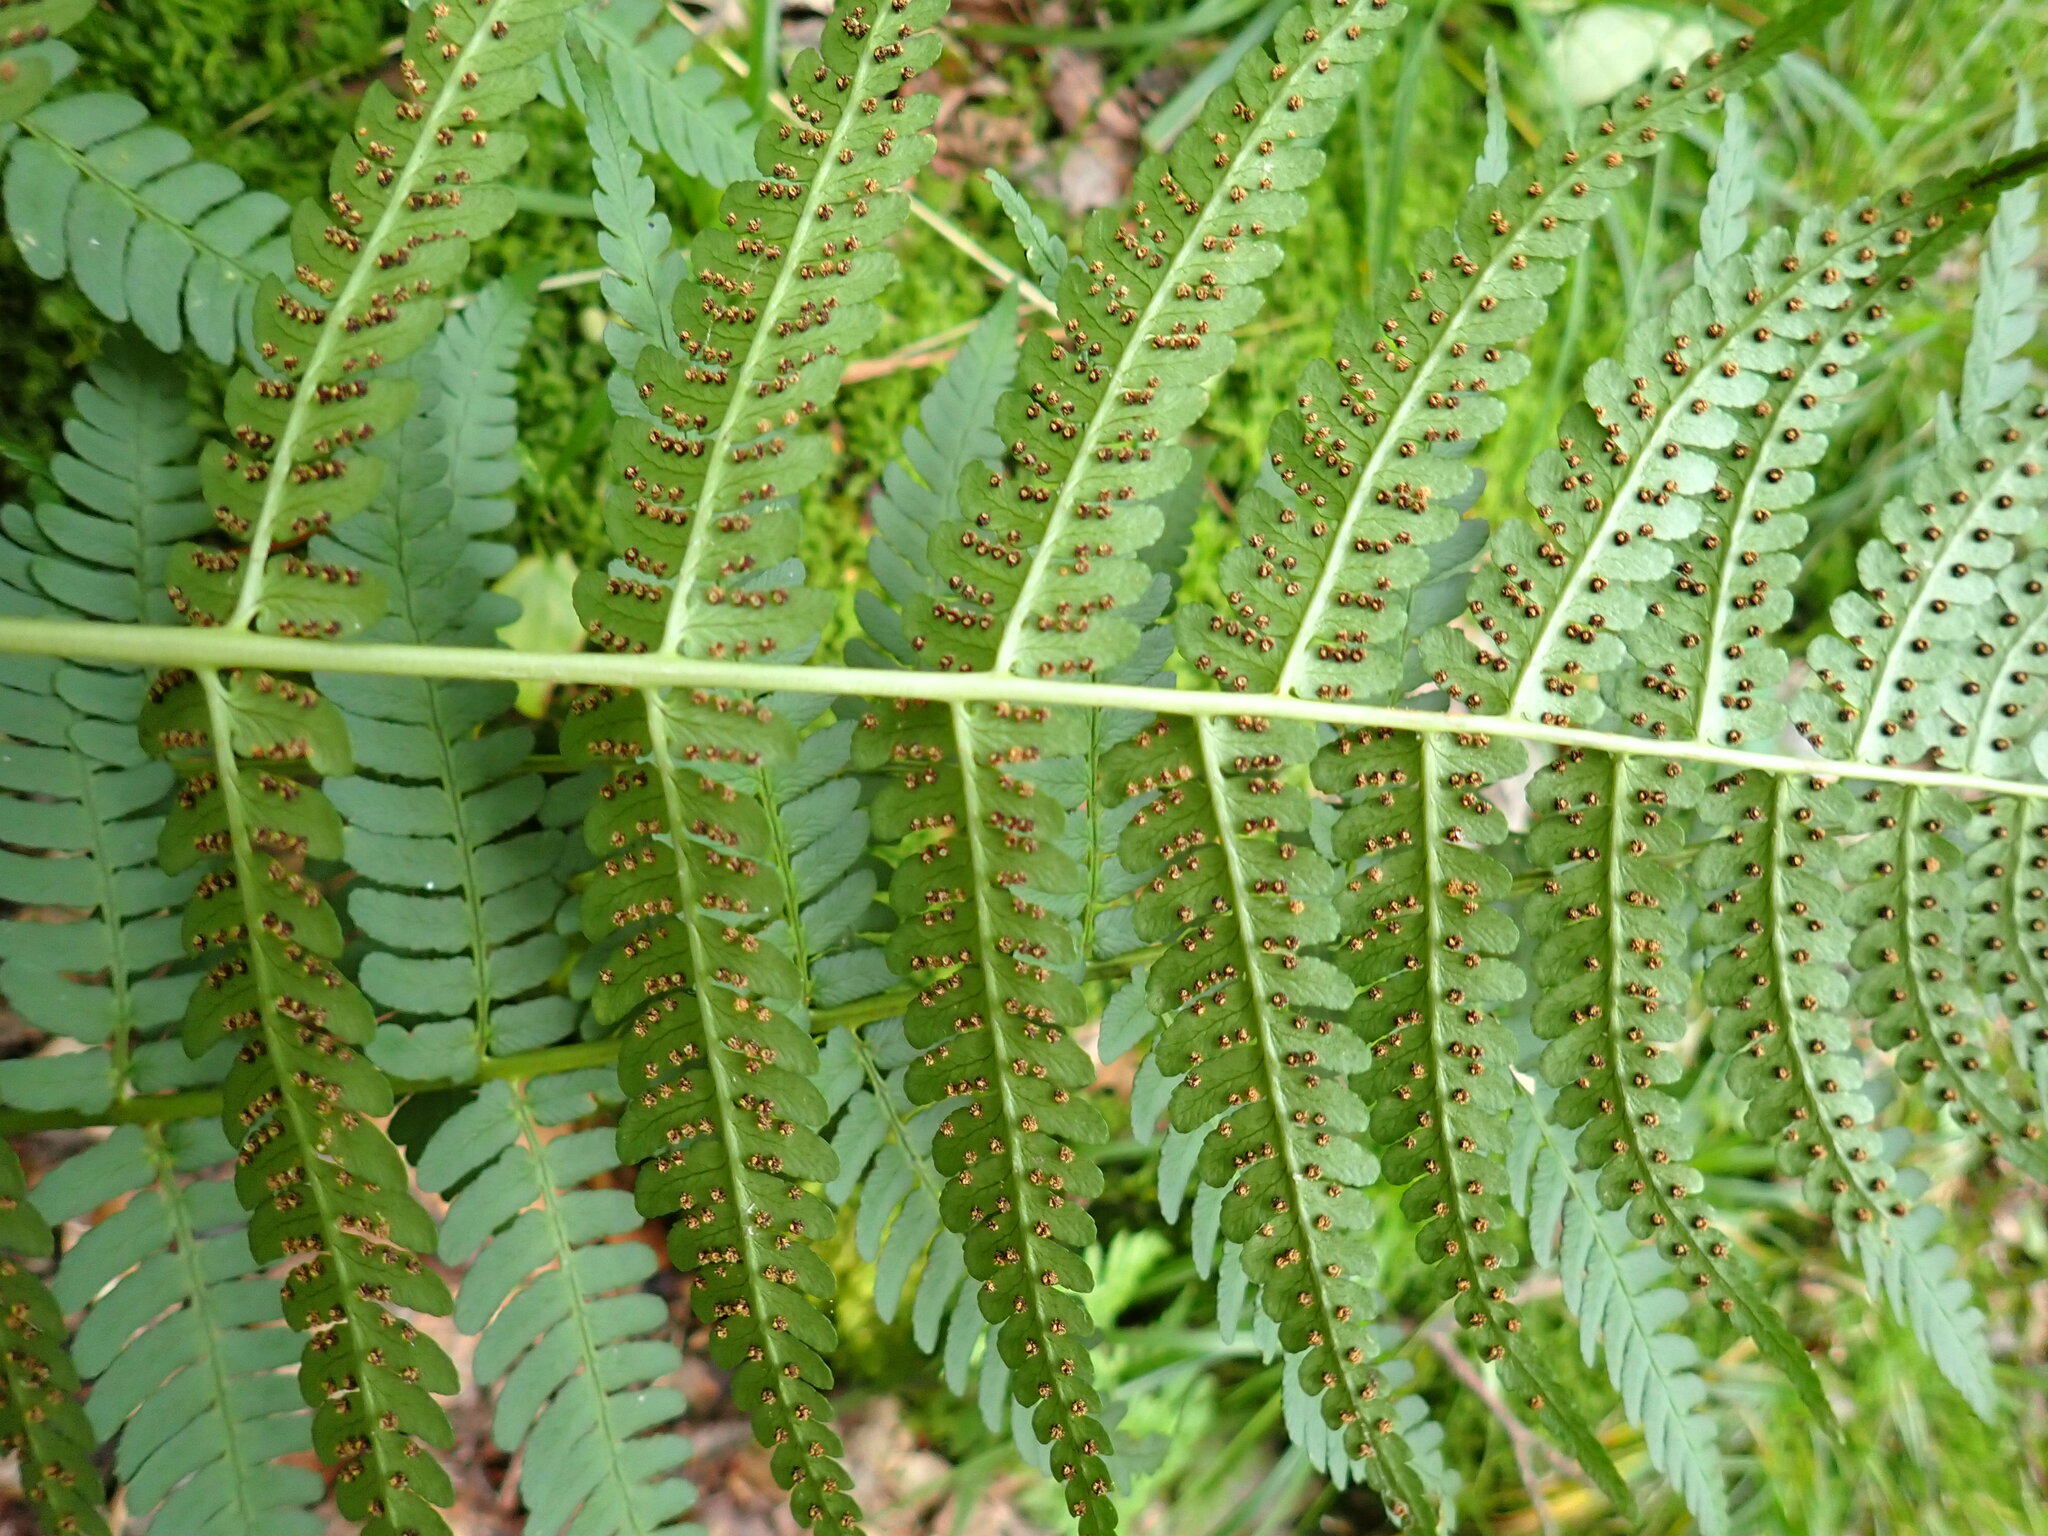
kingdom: Plantae
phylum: Tracheophyta
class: Polypodiopsida
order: Polypodiales
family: Dryopteridaceae
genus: Dryopteris
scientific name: Dryopteris marginalis
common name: Marginal wood fern
